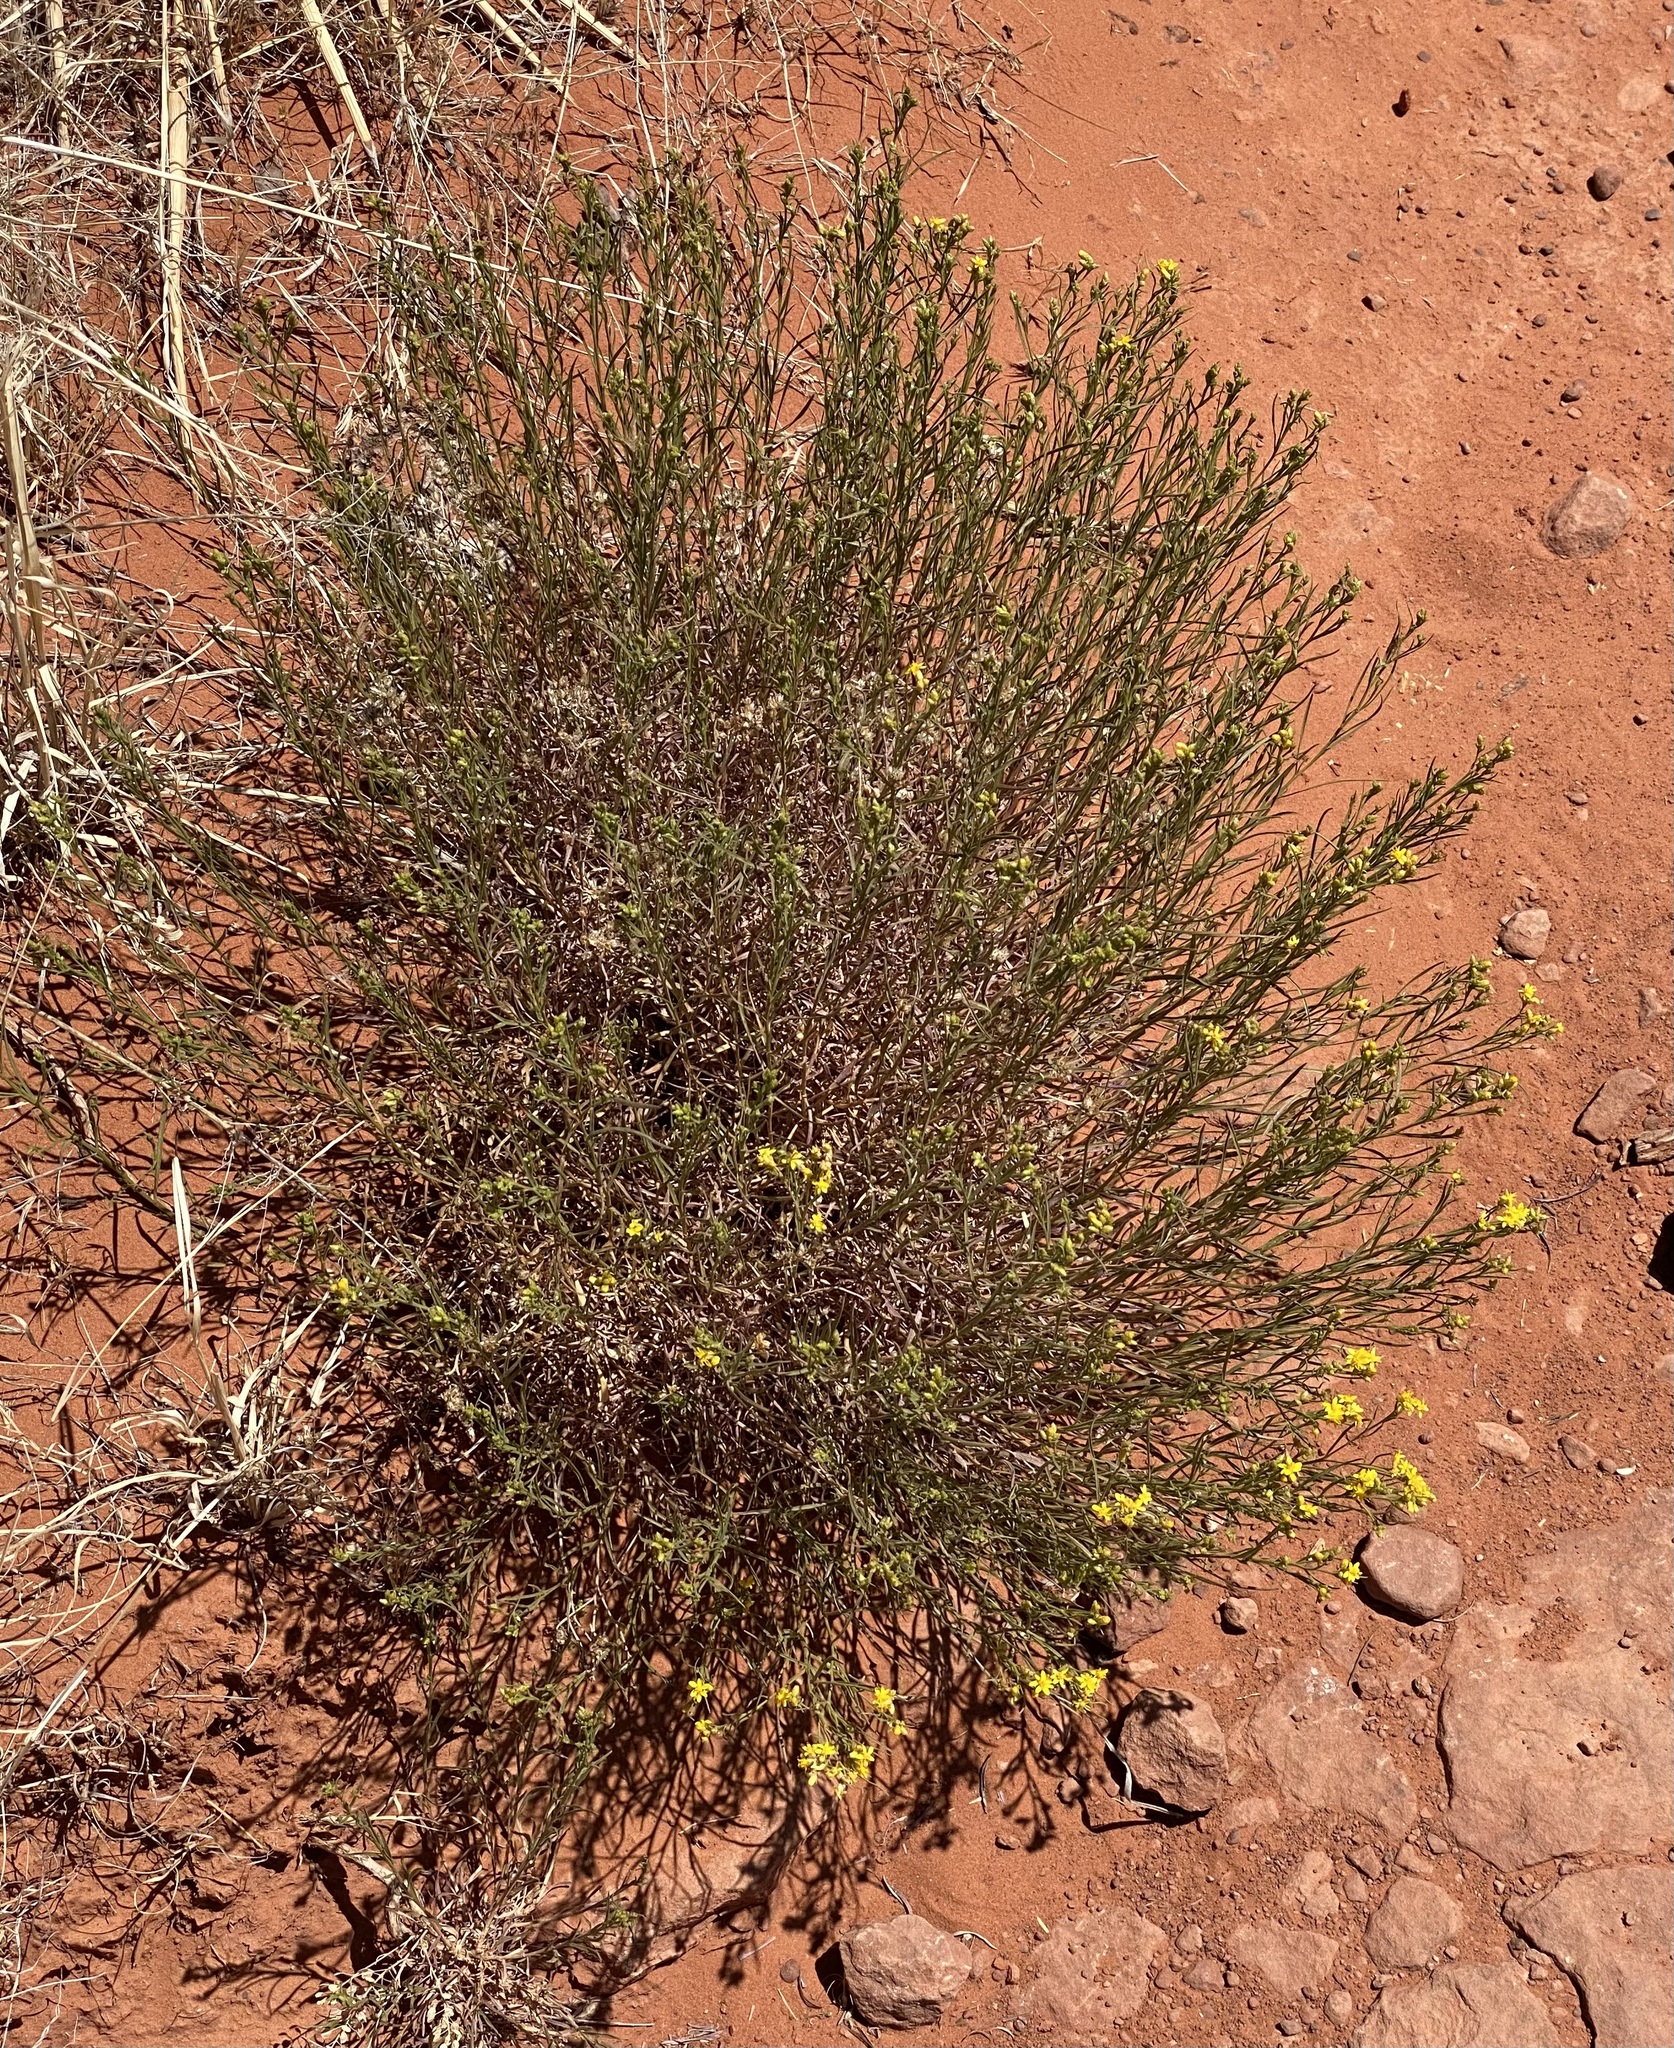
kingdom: Plantae
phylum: Tracheophyta
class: Magnoliopsida
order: Asterales
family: Asteraceae
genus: Gutierrezia
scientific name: Gutierrezia sarothrae
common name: Broom snakeweed
